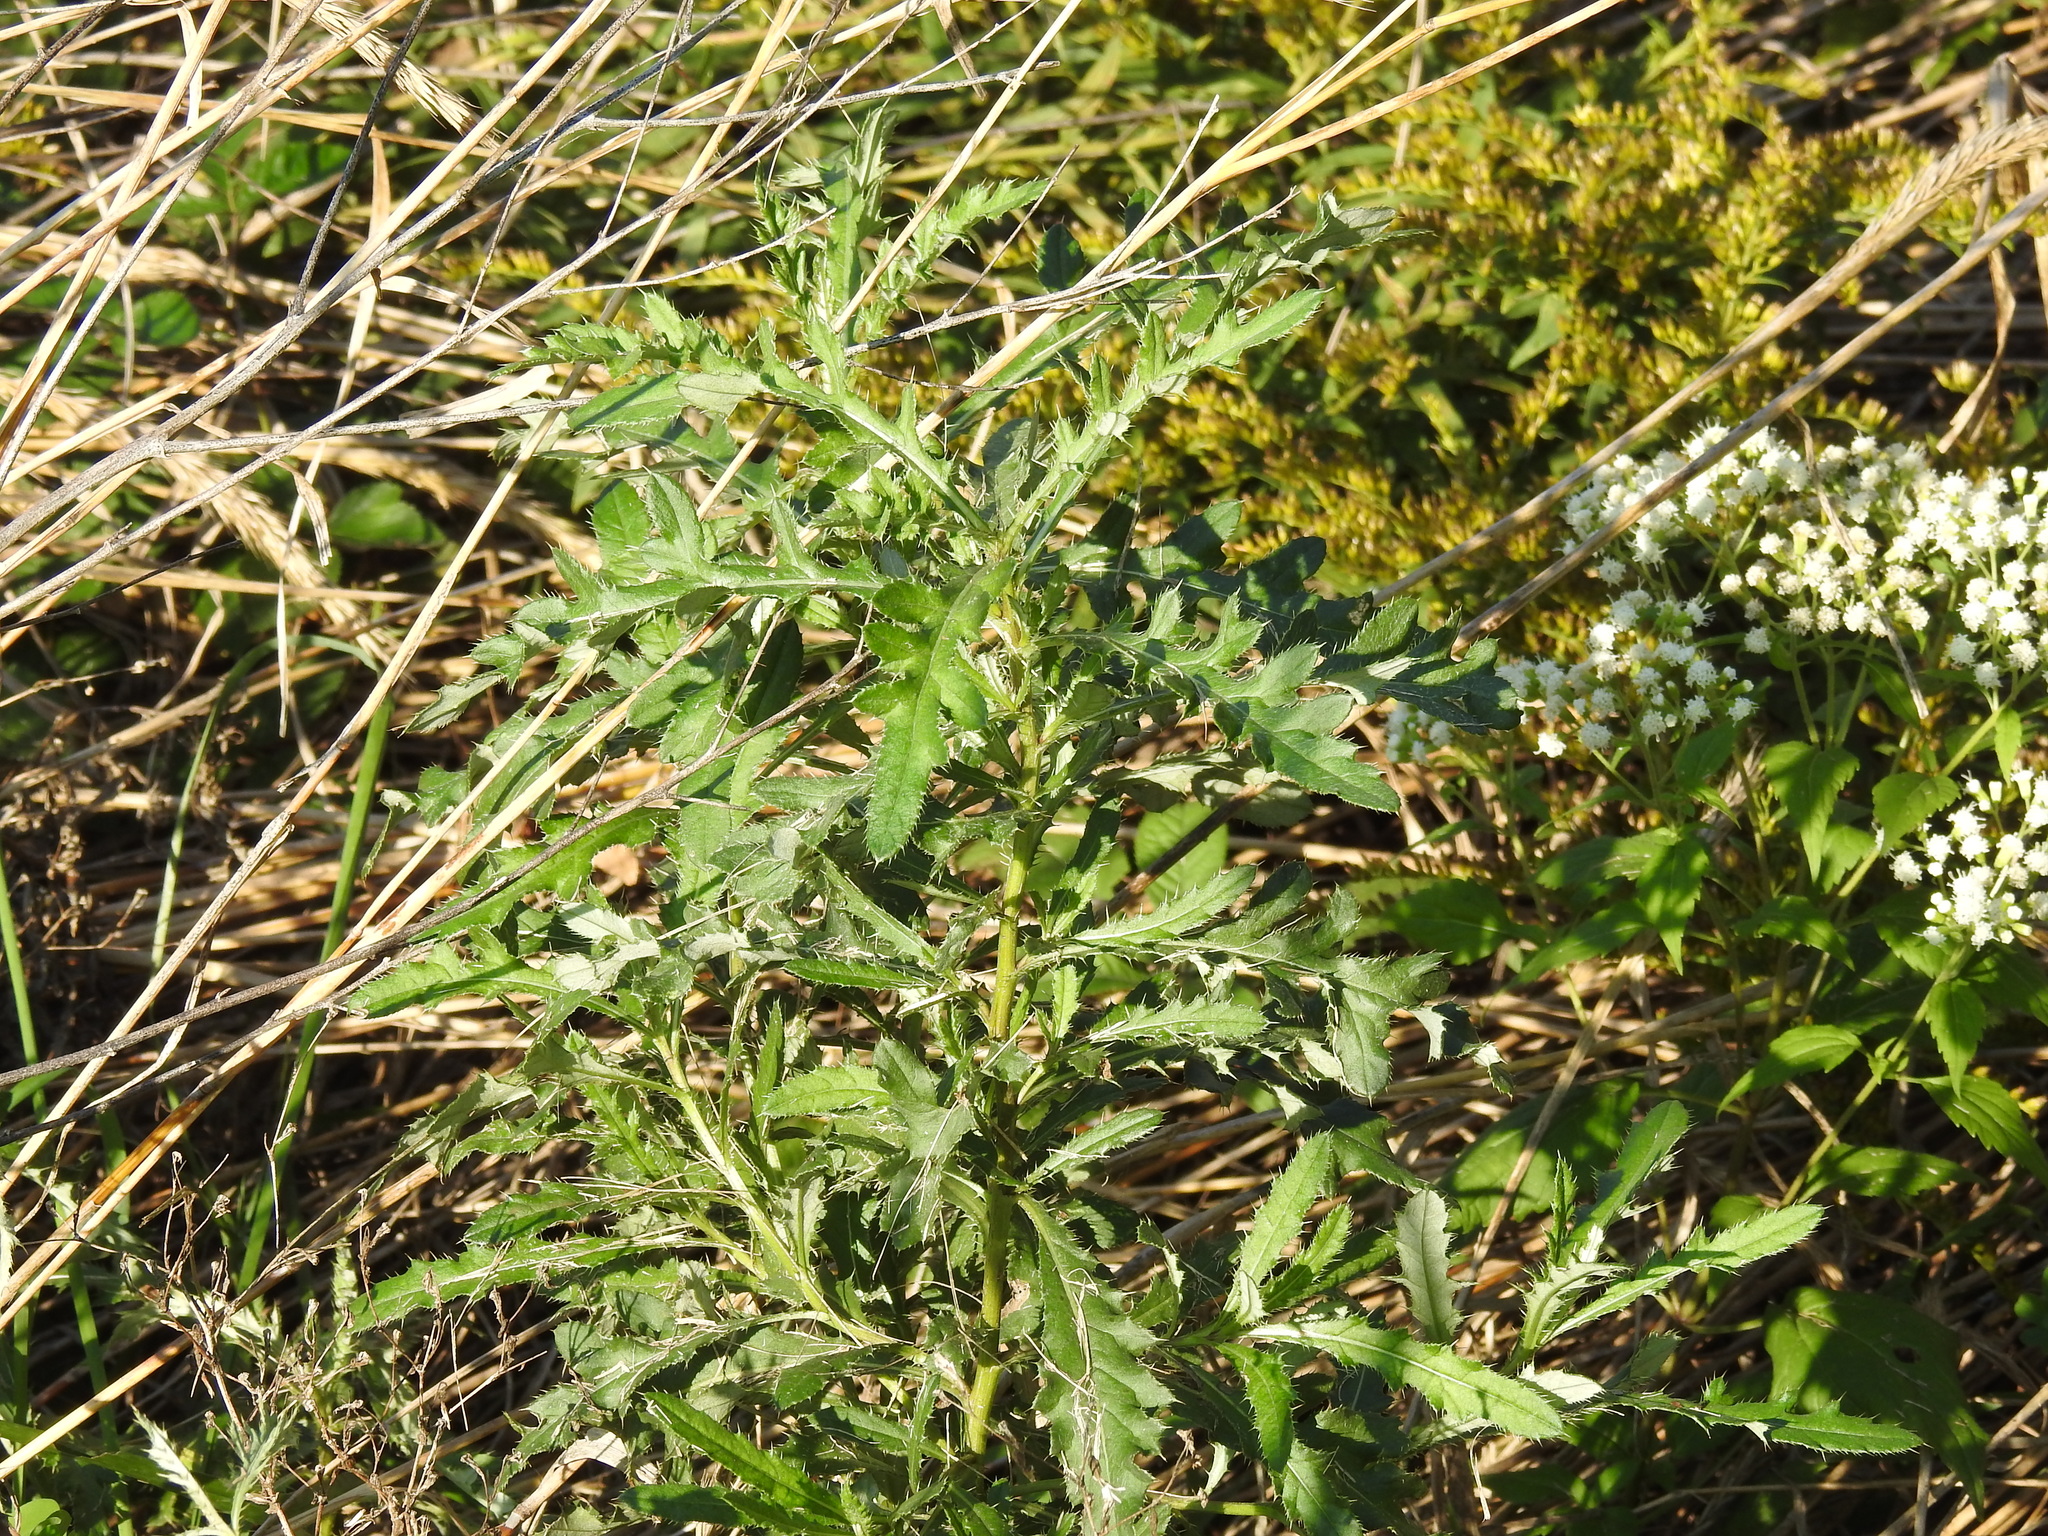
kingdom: Plantae
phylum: Tracheophyta
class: Magnoliopsida
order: Asterales
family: Asteraceae
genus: Cirsium
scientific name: Cirsium arvense
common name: Creeping thistle
